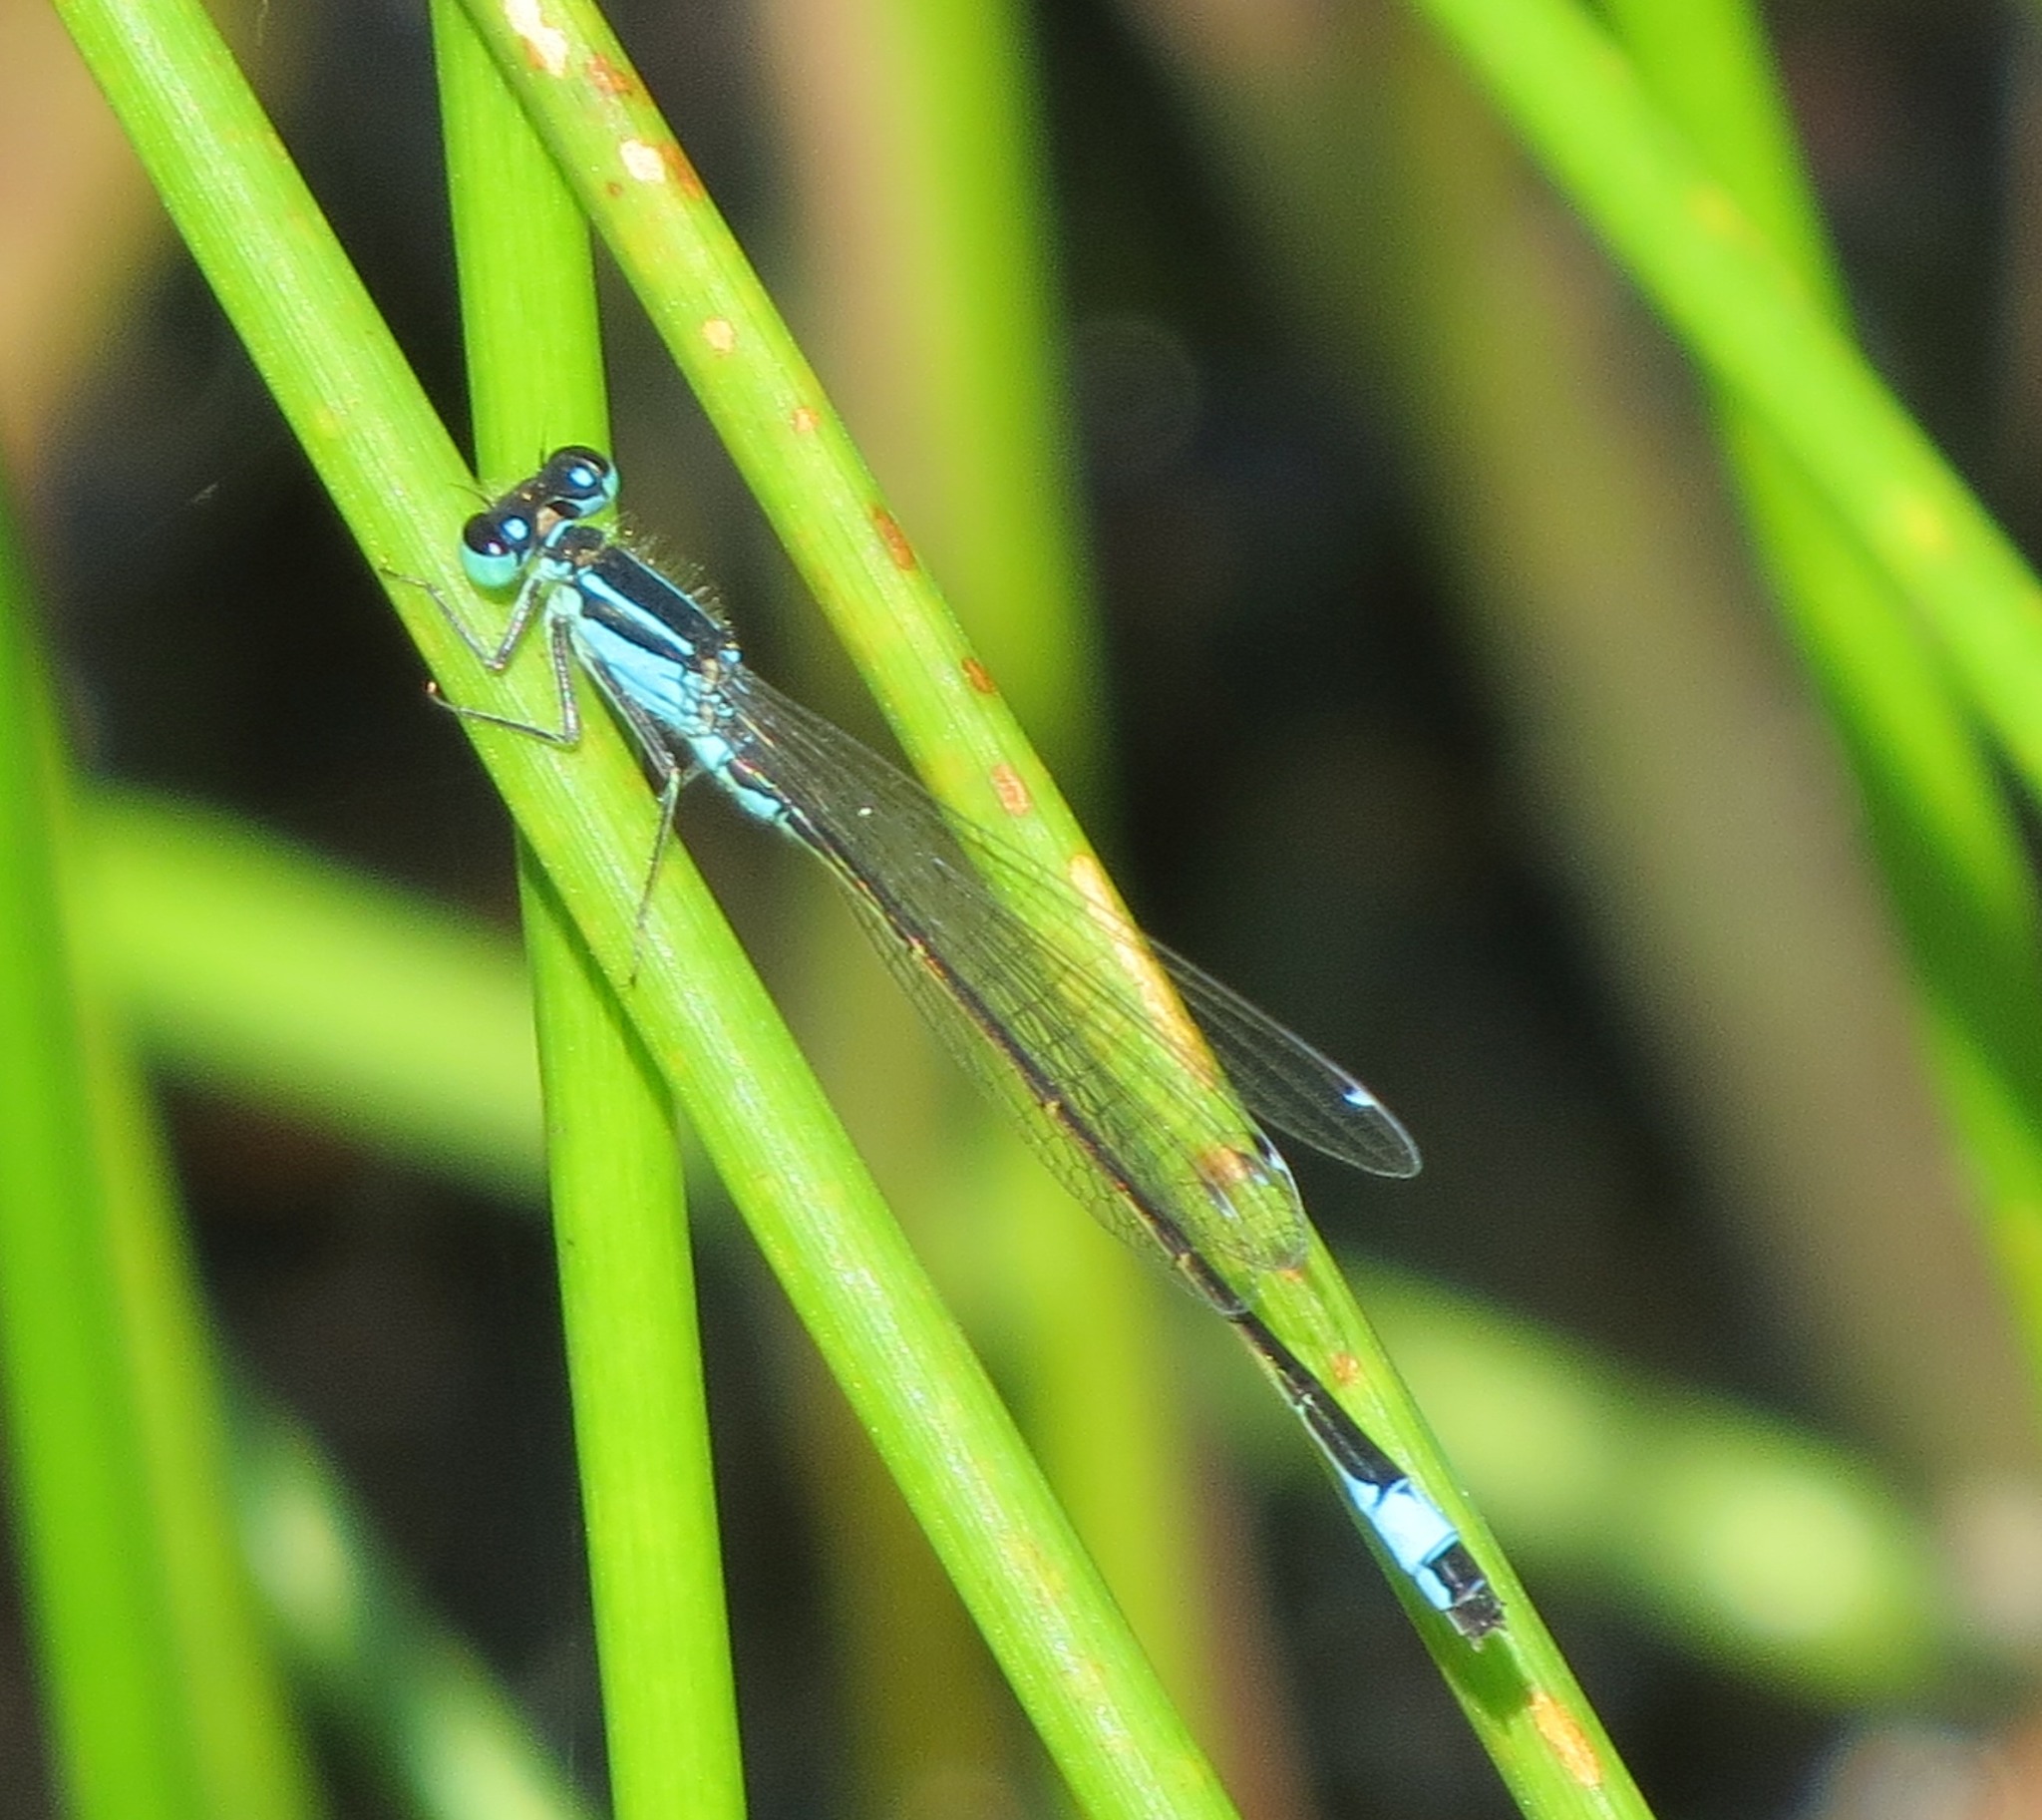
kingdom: Animalia
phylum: Arthropoda
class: Insecta
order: Odonata
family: Coenagrionidae
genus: Ischnura
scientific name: Ischnura elegans
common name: Blue-tailed damselfly
